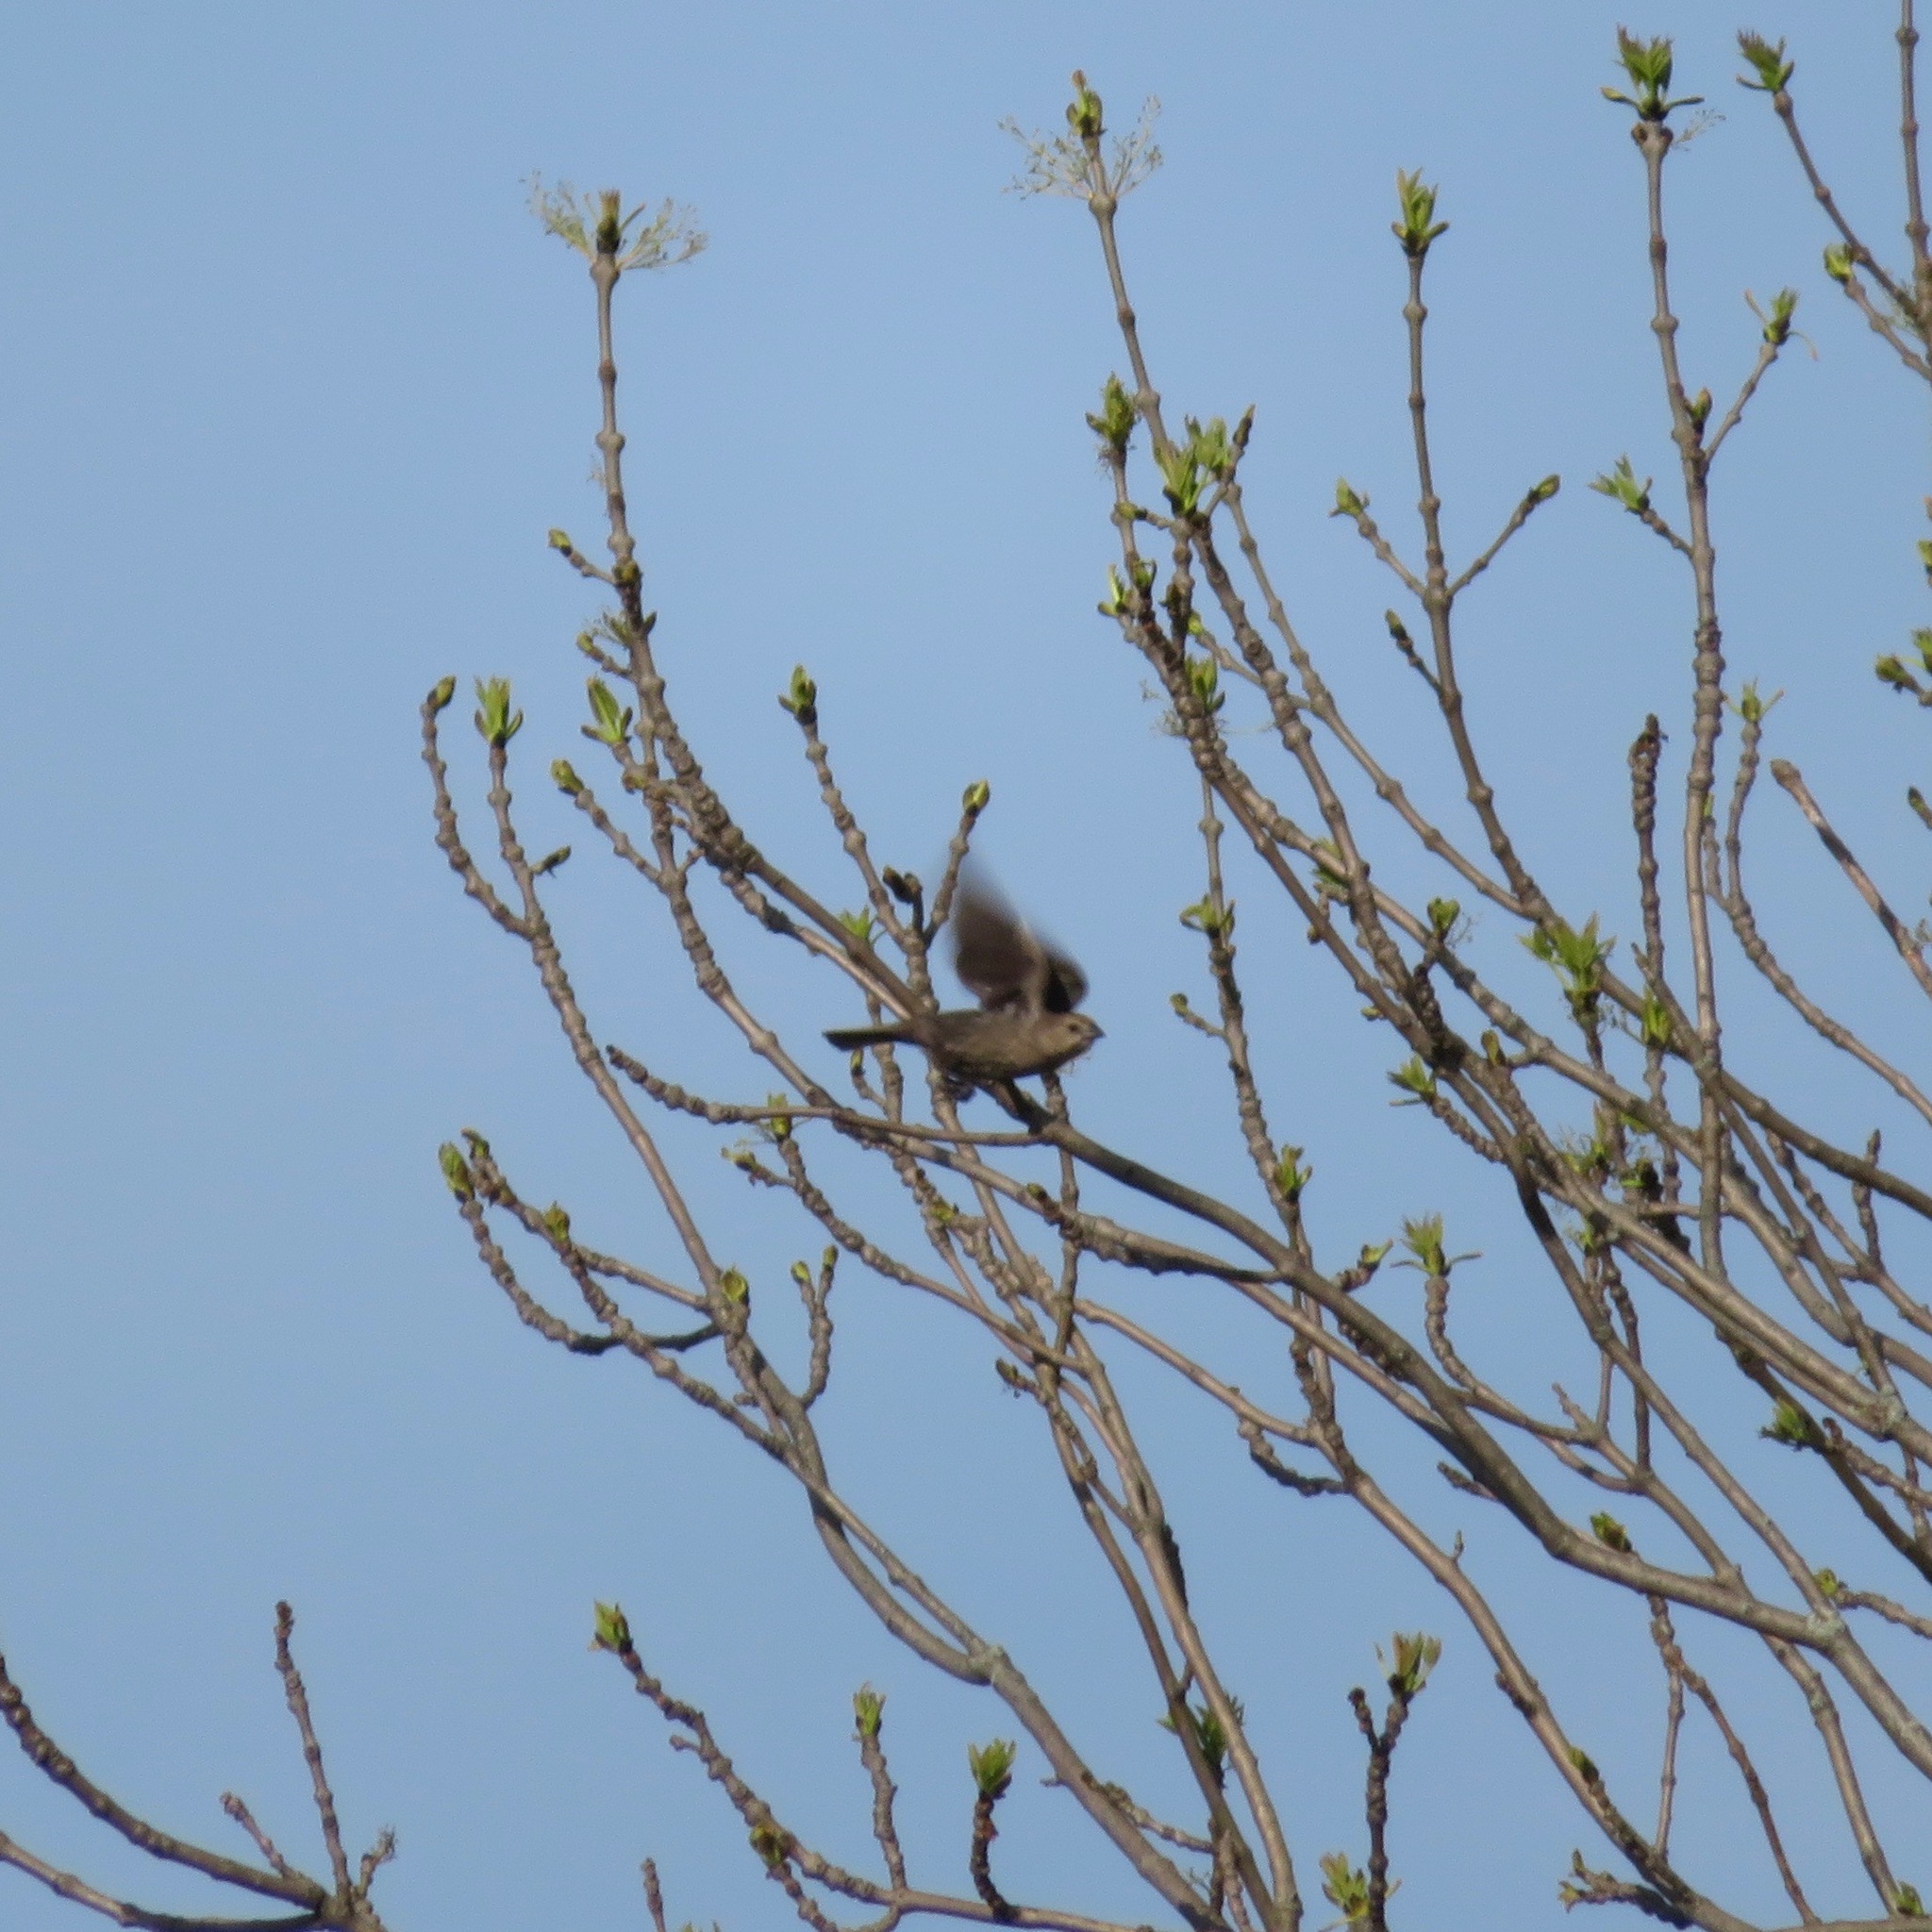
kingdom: Animalia
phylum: Chordata
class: Aves
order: Passeriformes
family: Icteridae
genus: Molothrus
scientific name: Molothrus ater
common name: Brown-headed cowbird
